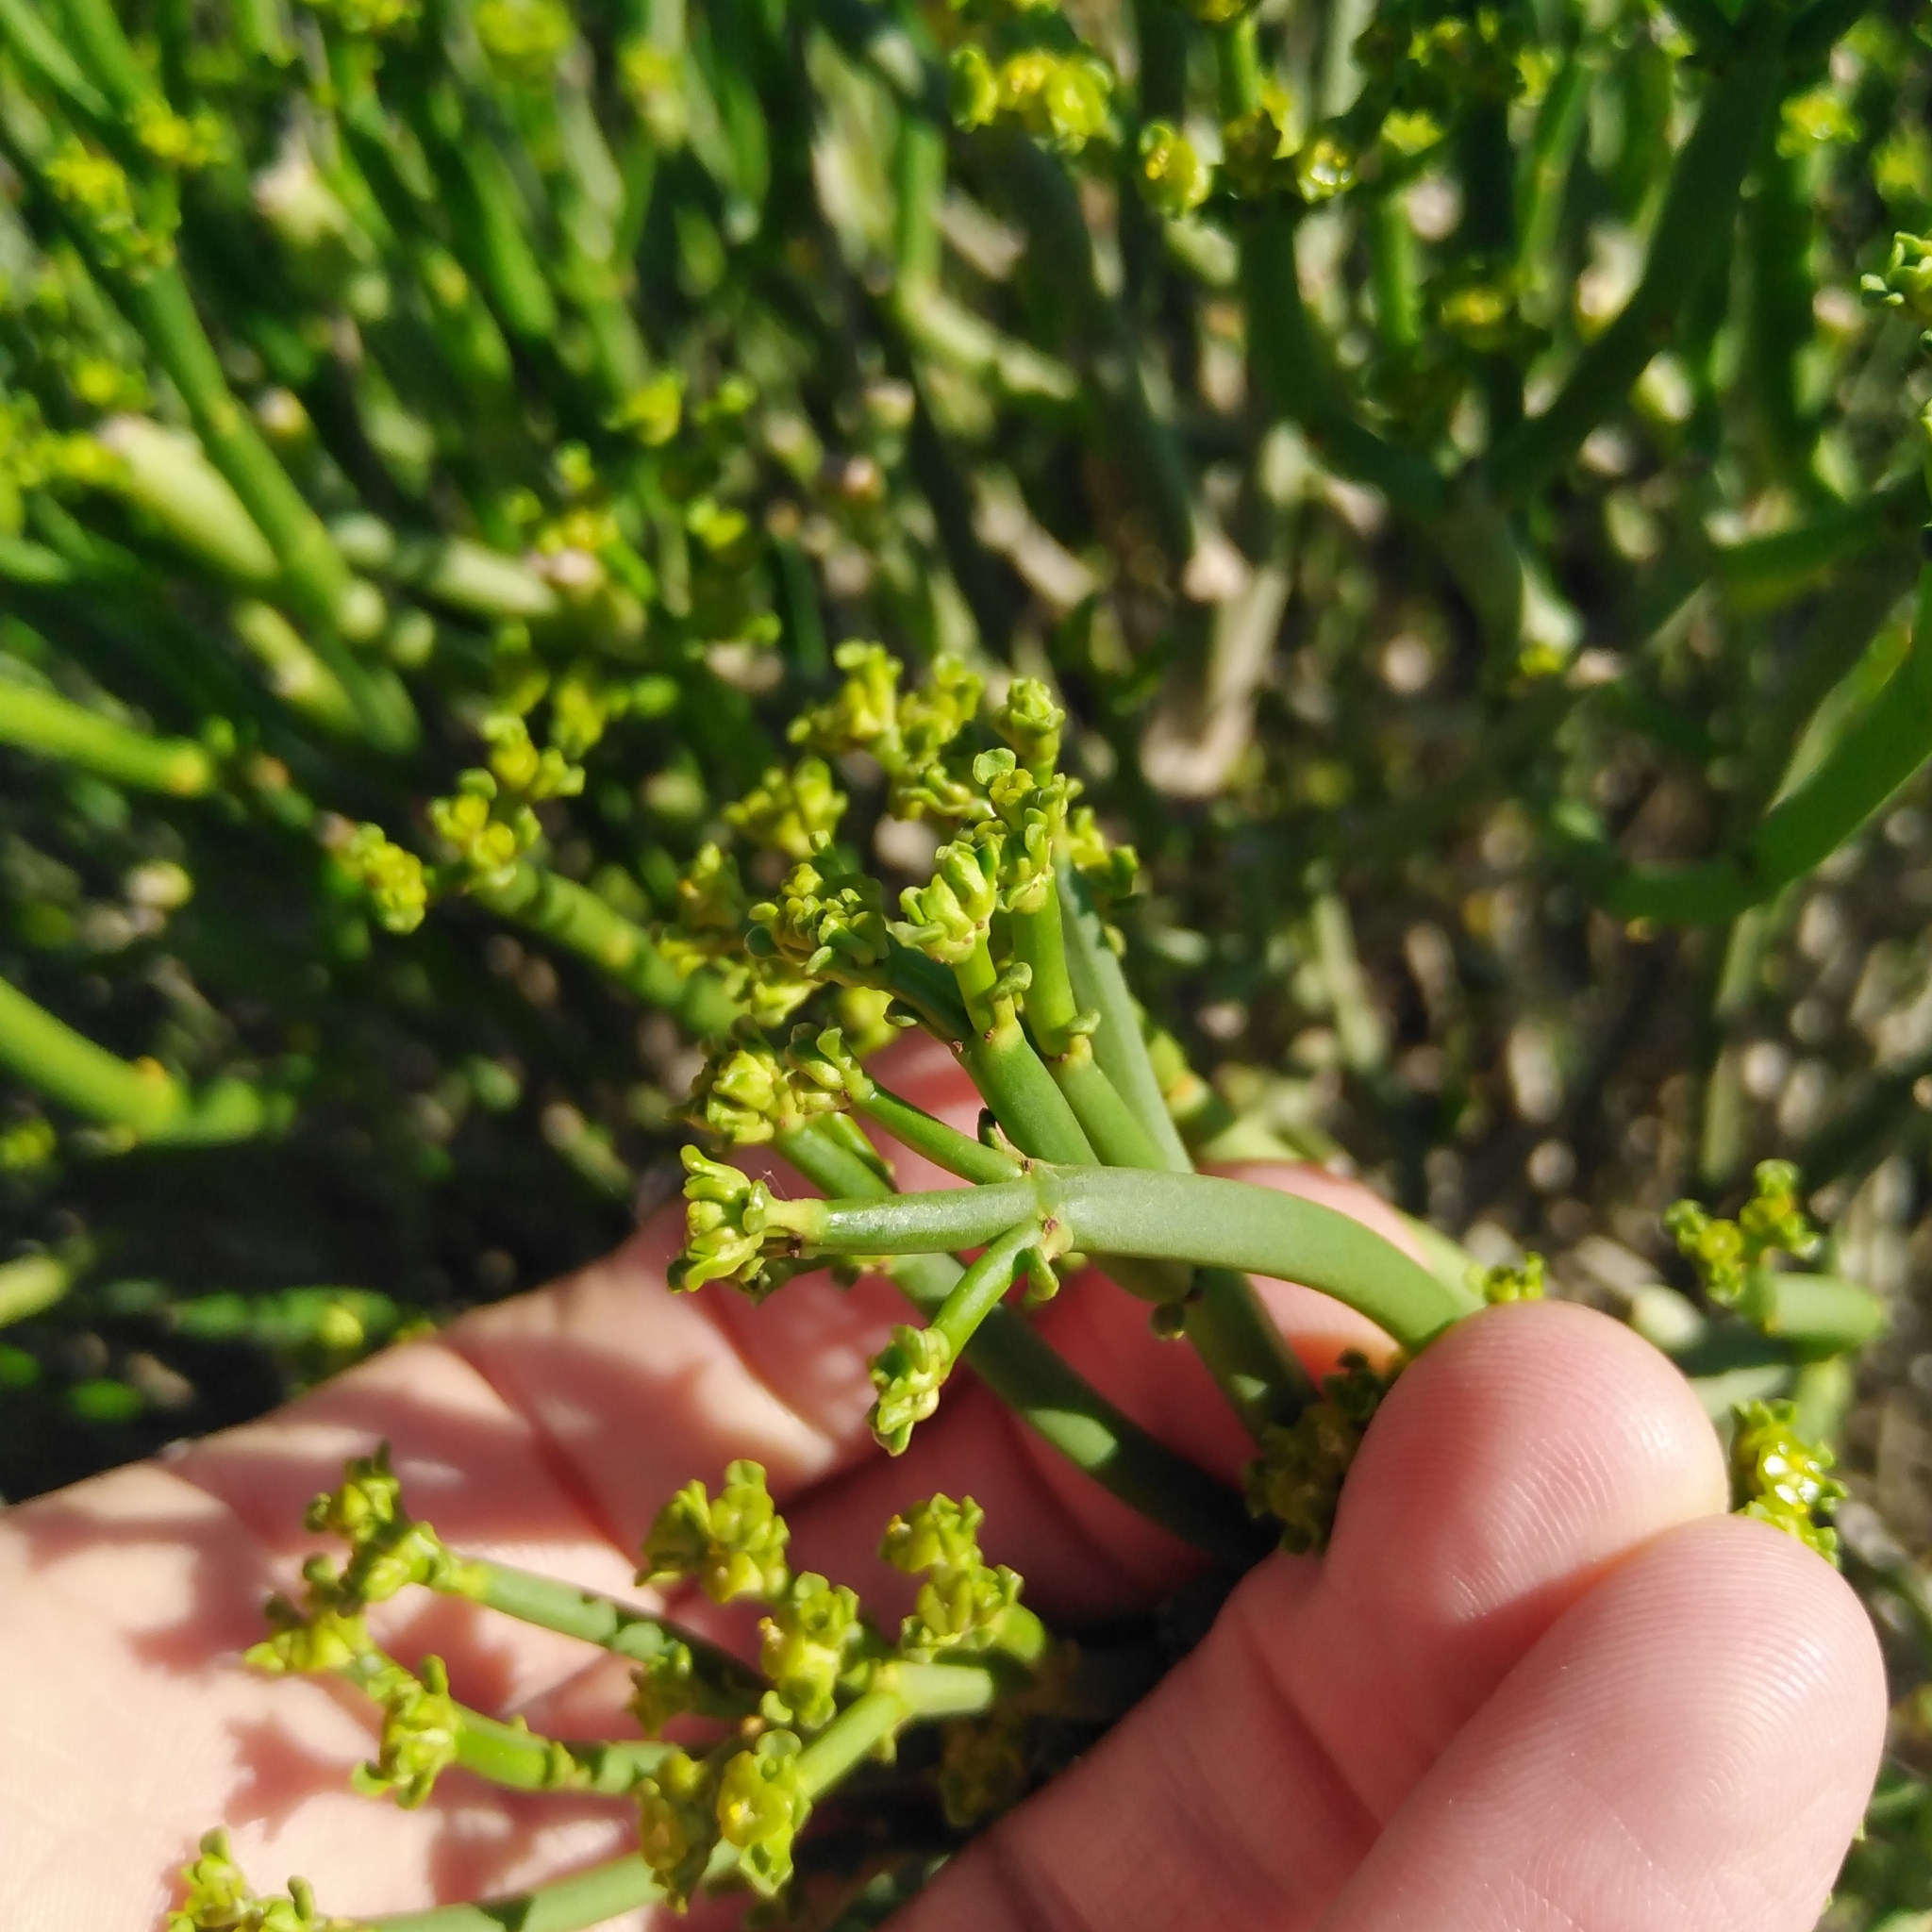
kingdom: Plantae
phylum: Tracheophyta
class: Magnoliopsida
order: Malpighiales
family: Euphorbiaceae
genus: Euphorbia
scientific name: Euphorbia burmanni
